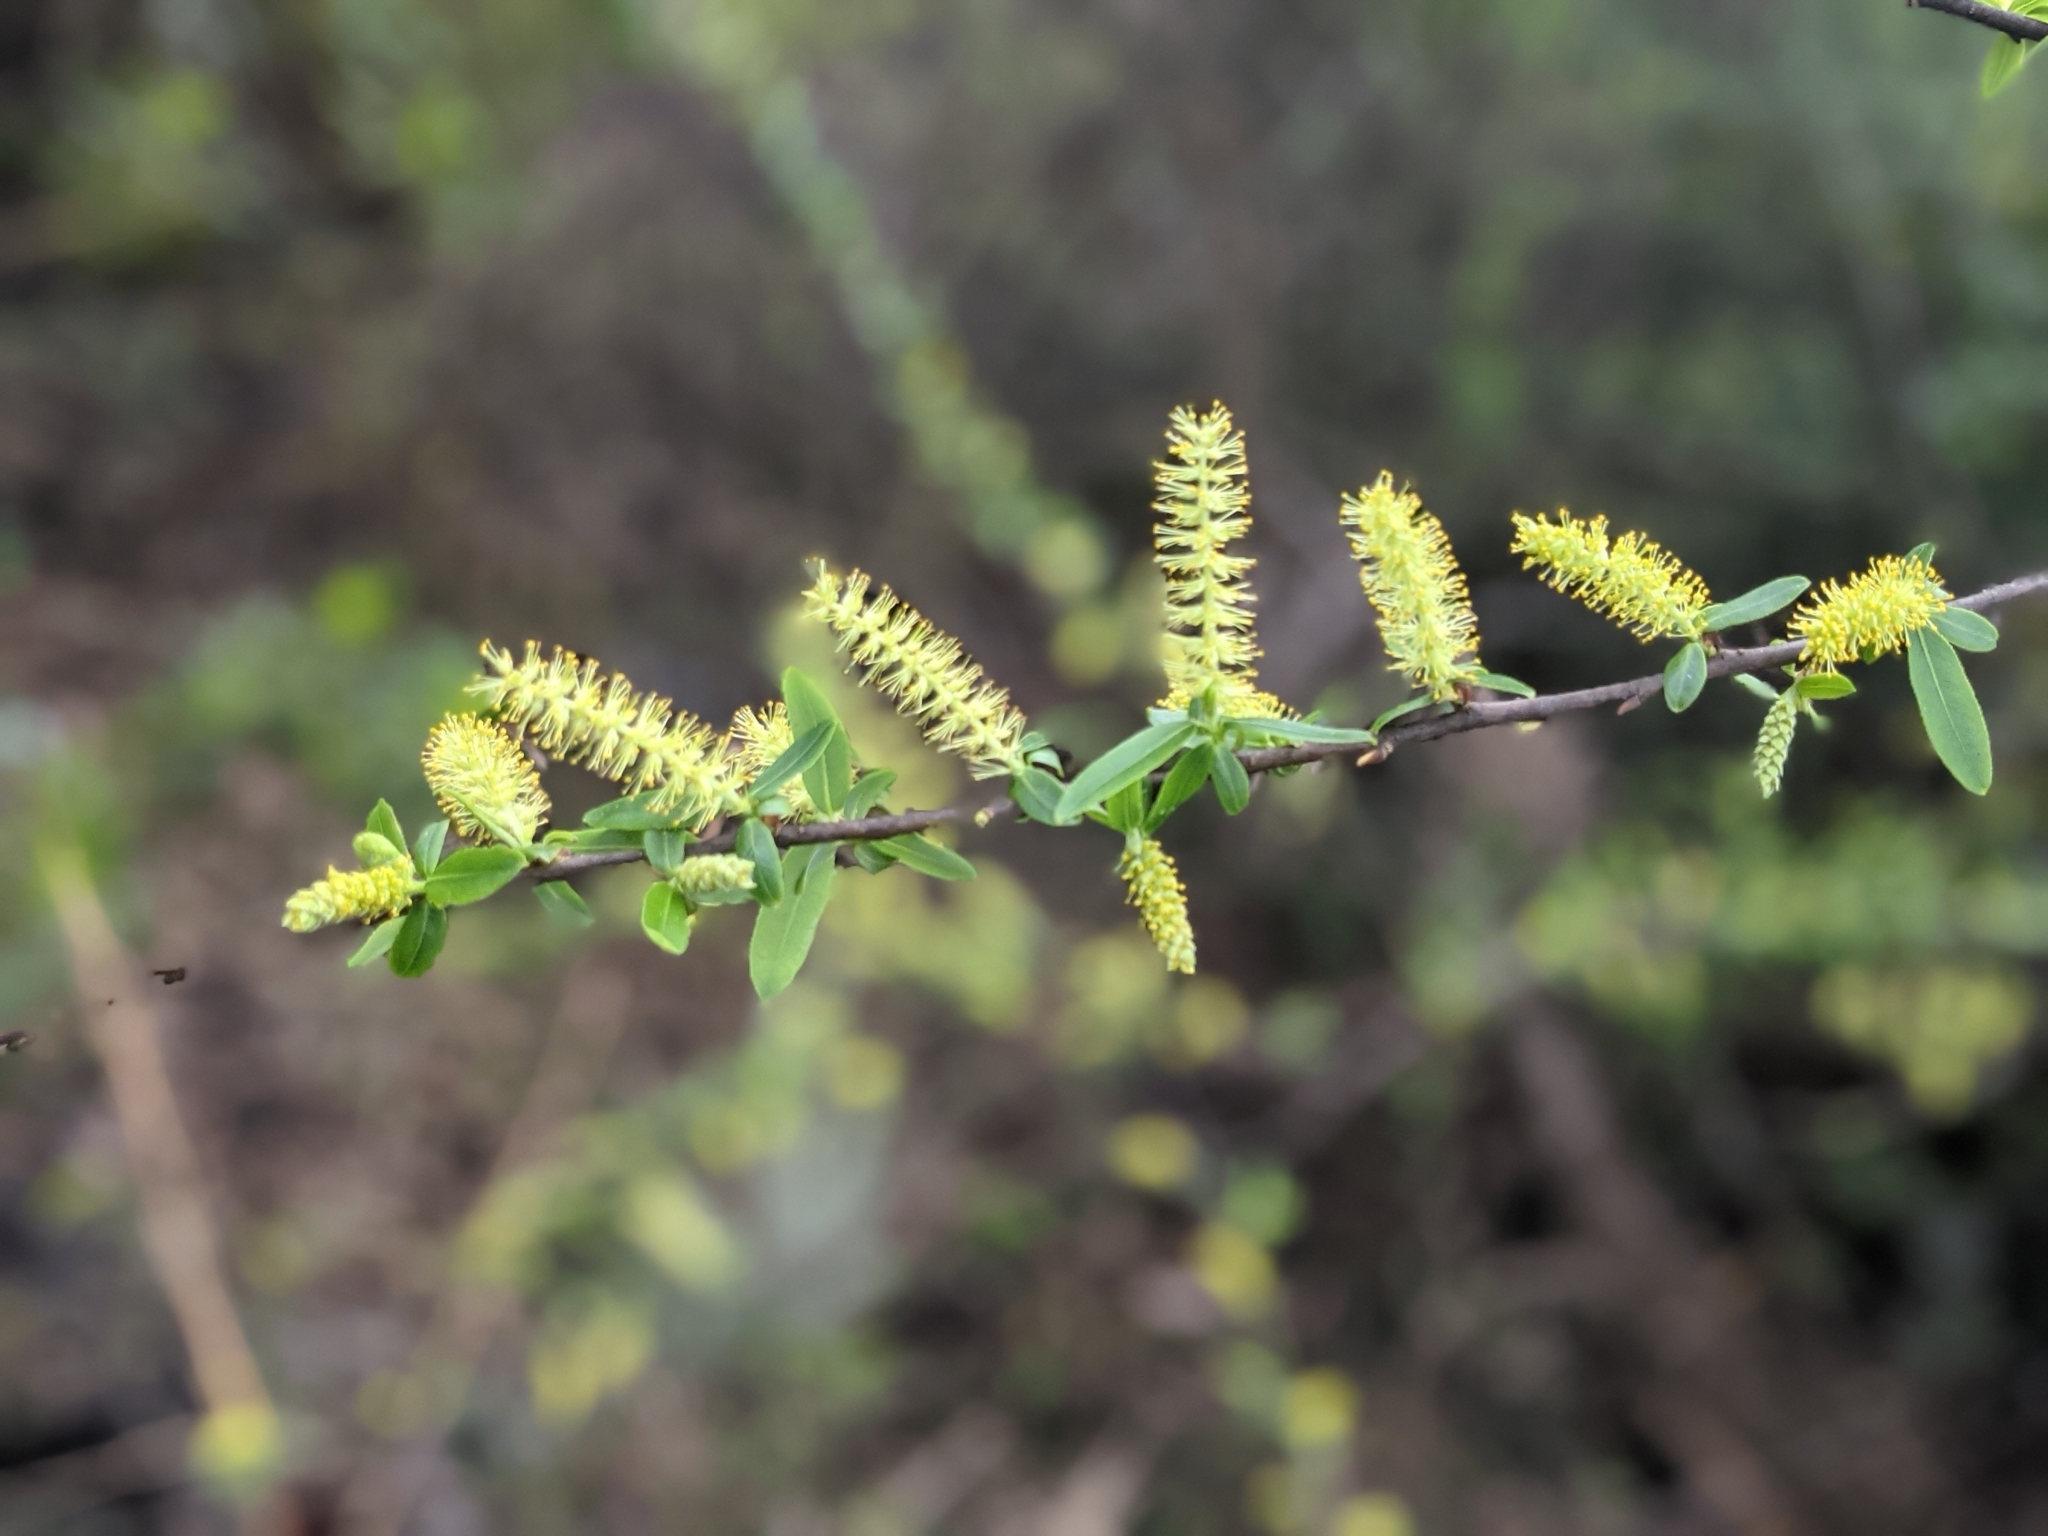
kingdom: Plantae
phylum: Tracheophyta
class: Magnoliopsida
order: Malpighiales
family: Salicaceae
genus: Salix
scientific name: Salix caroliniana
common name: Carolina willow
